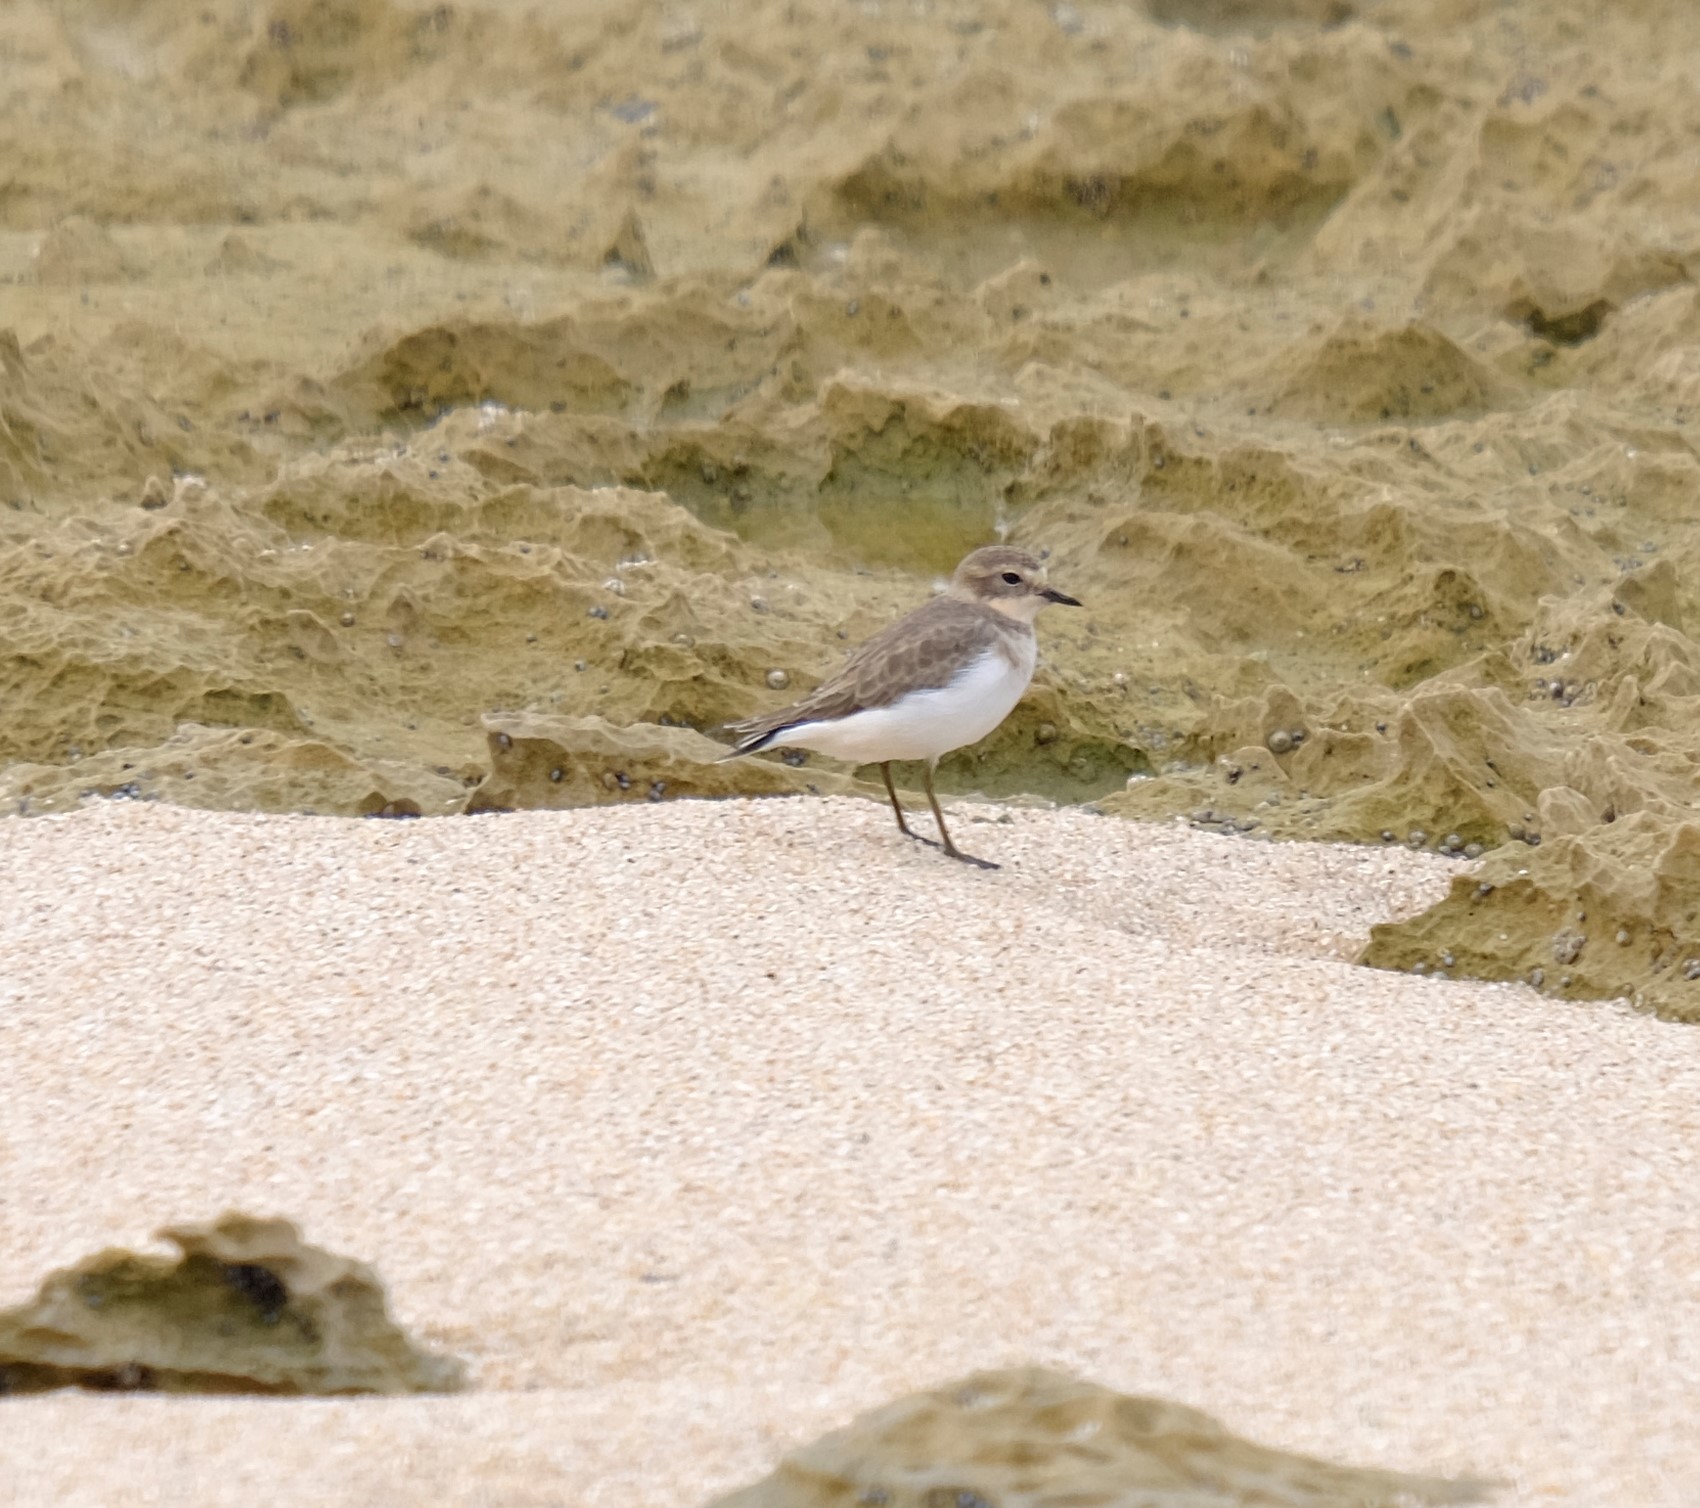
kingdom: Animalia
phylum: Chordata
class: Aves
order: Charadriiformes
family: Charadriidae
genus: Anarhynchus
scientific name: Anarhynchus
